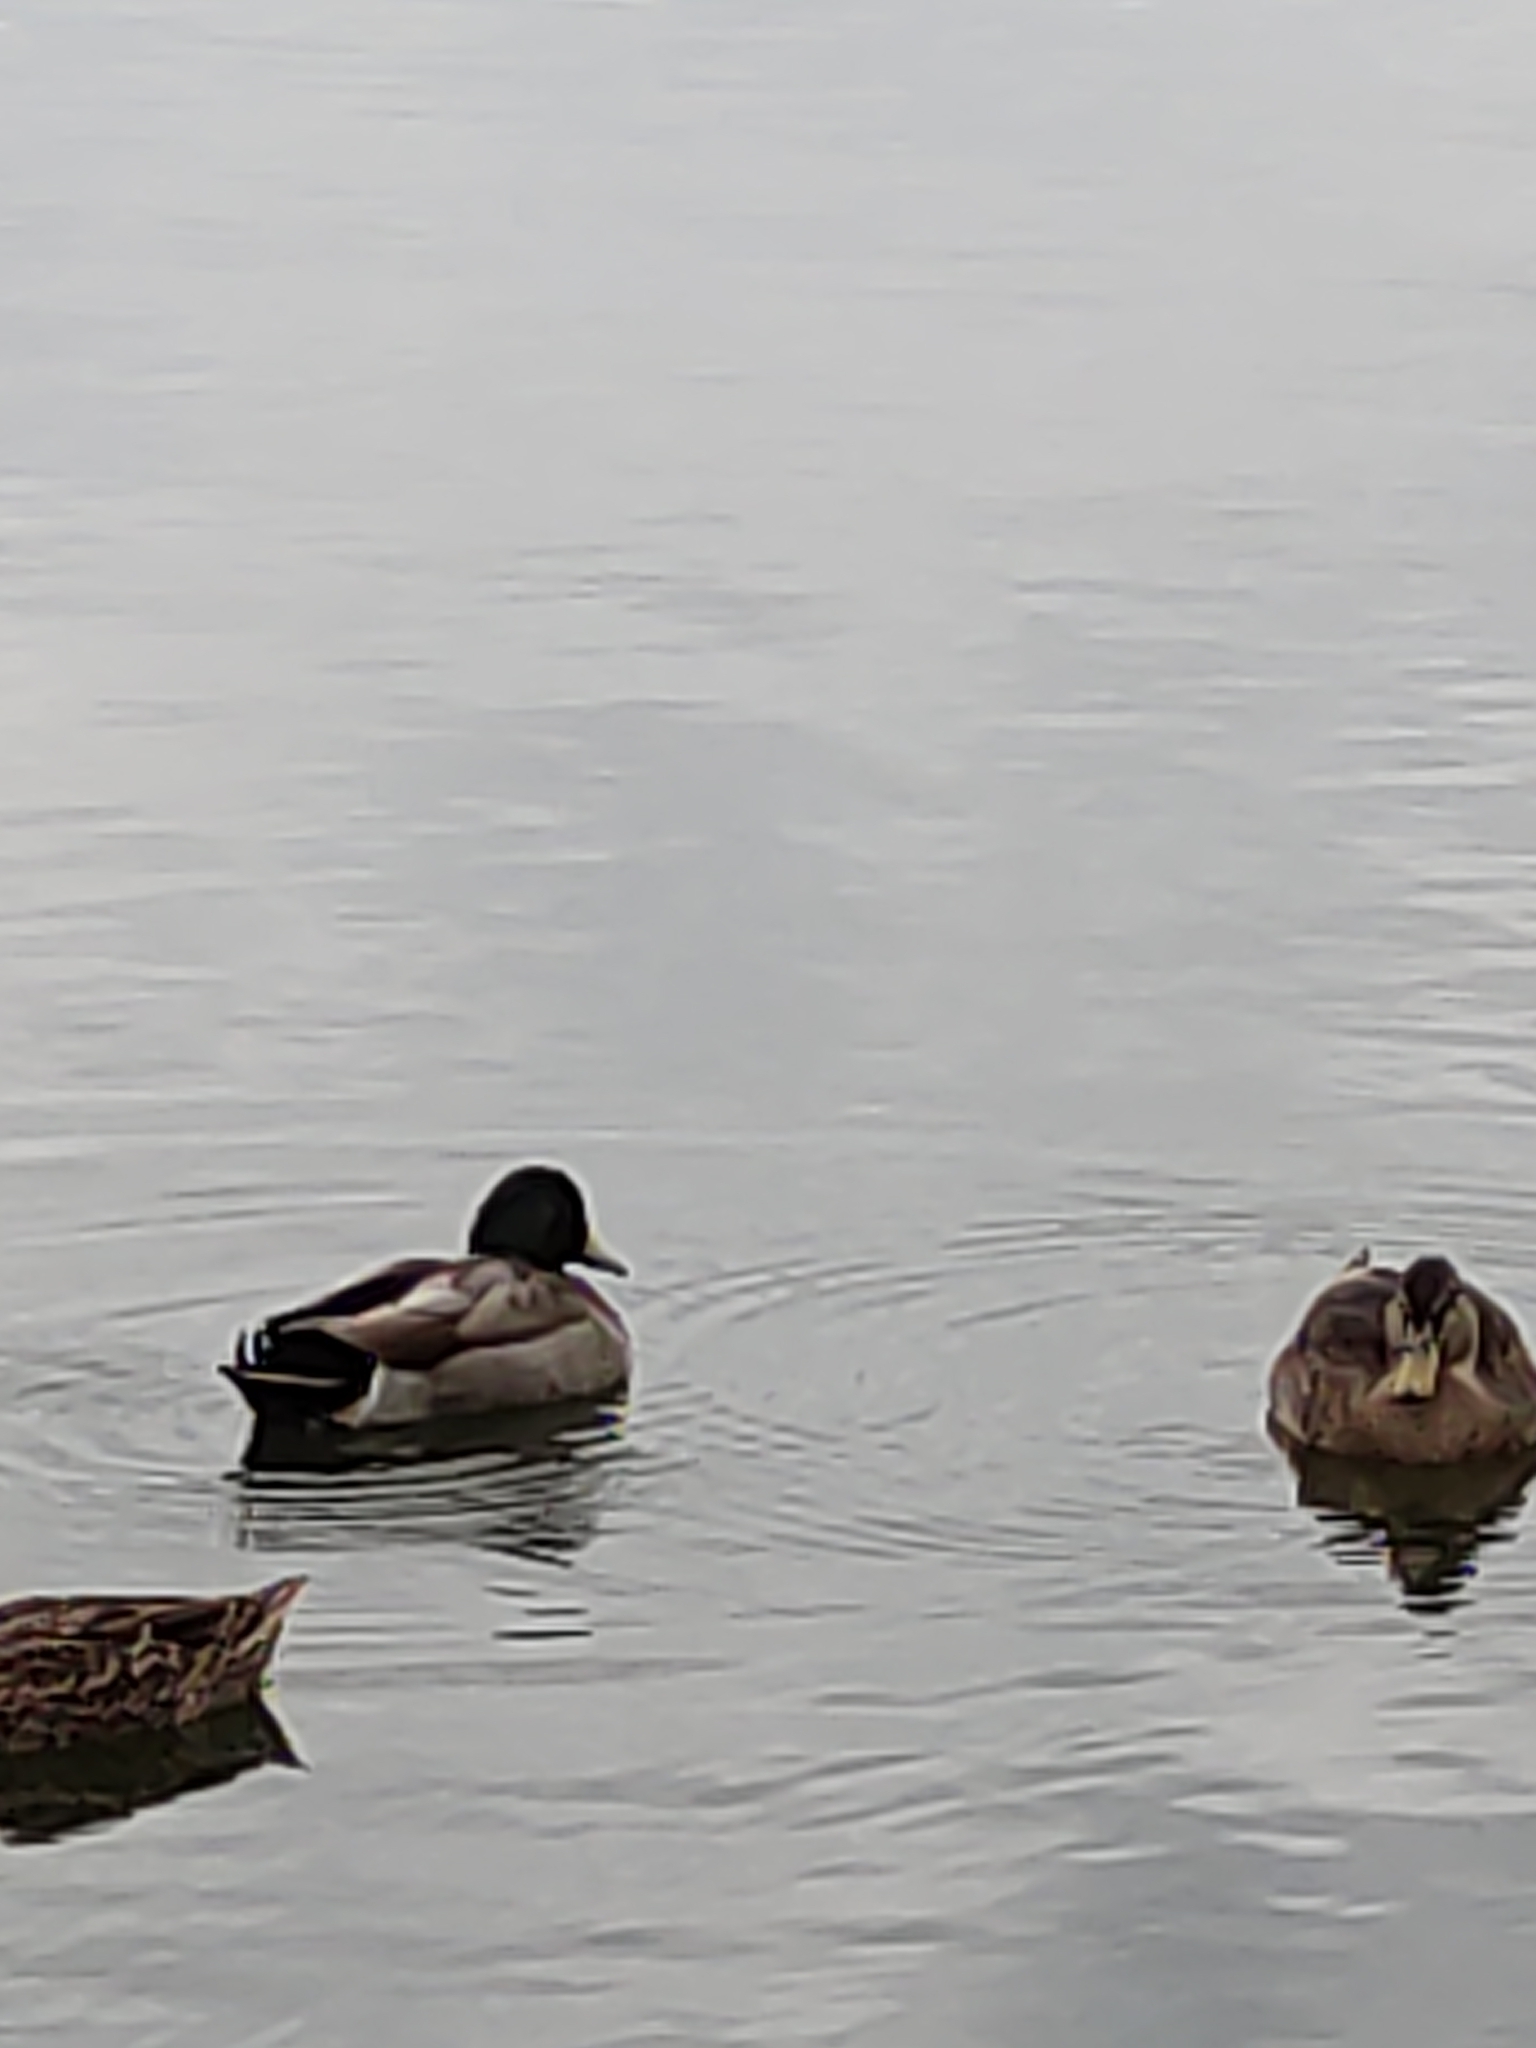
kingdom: Animalia
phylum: Chordata
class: Aves
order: Anseriformes
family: Anatidae
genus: Anas
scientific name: Anas
